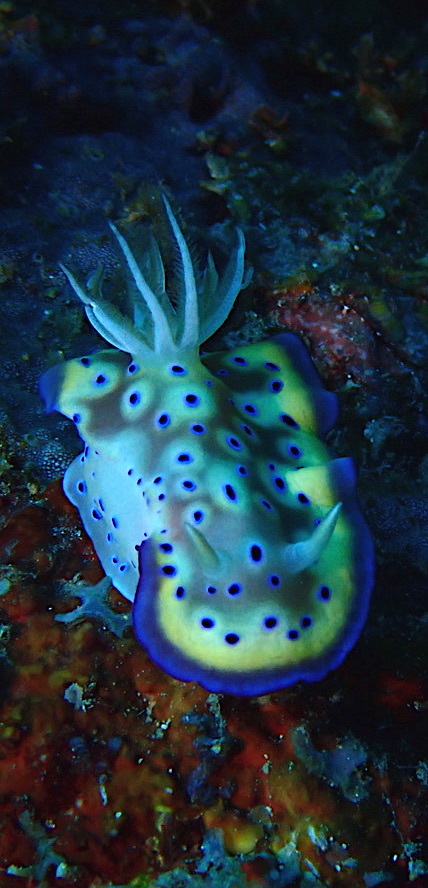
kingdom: Animalia
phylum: Mollusca
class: Gastropoda
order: Nudibranchia
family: Chromodorididae
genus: Goniobranchus
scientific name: Goniobranchus kuniei
